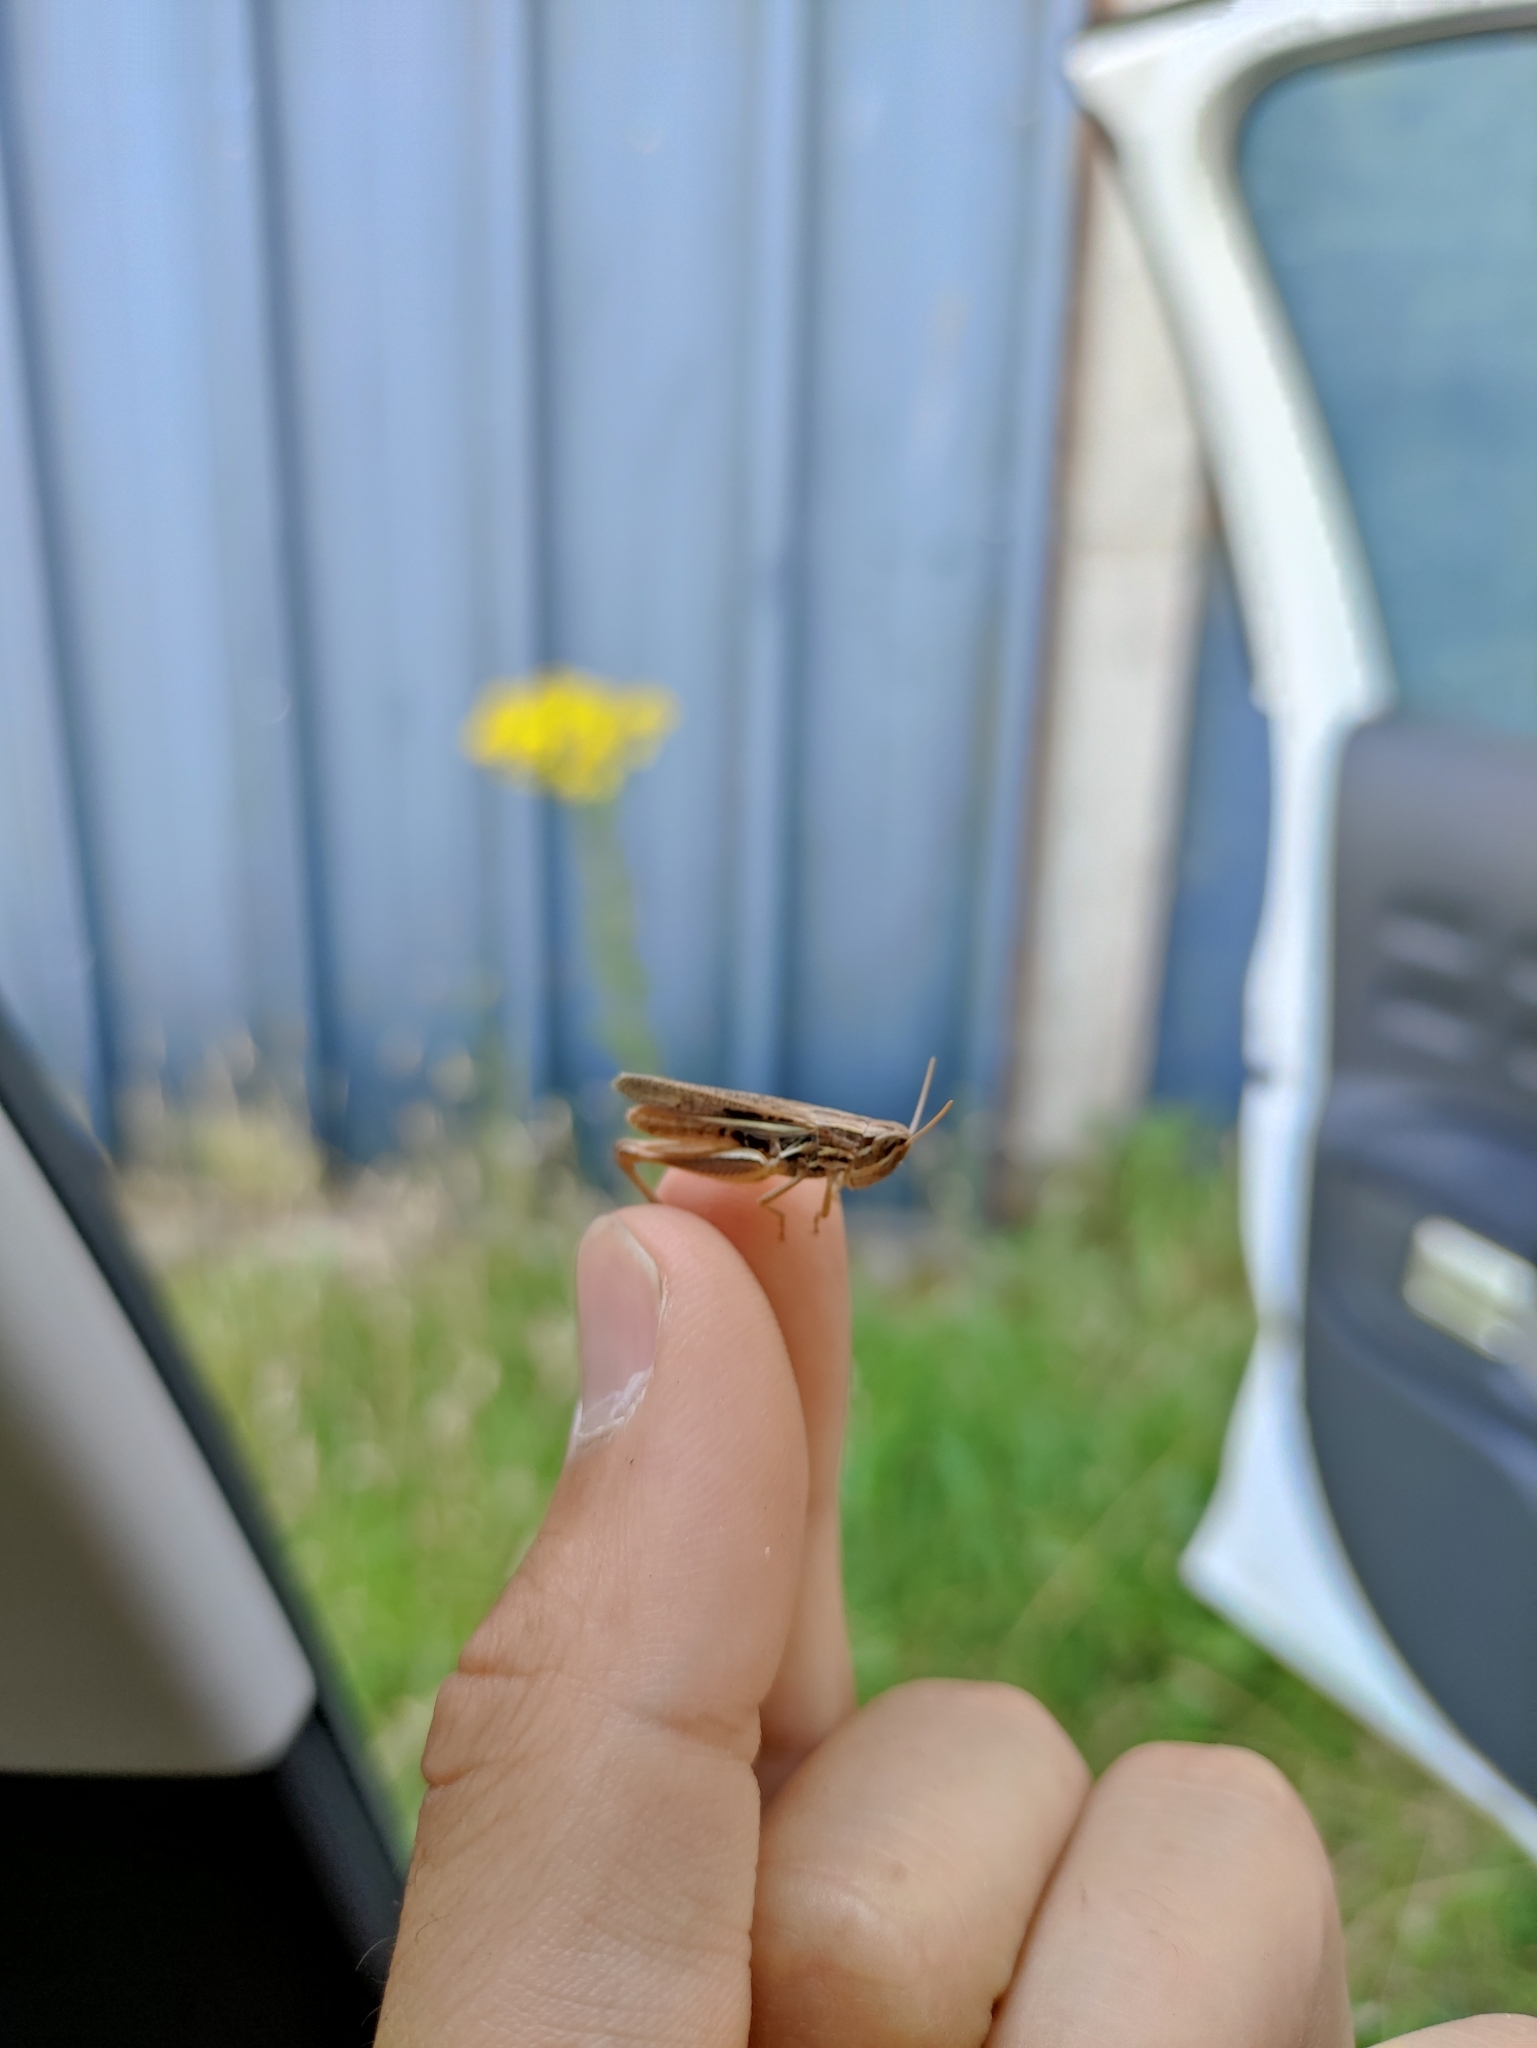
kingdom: Animalia
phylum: Arthropoda
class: Insecta
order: Orthoptera
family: Acrididae
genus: Chorthippus
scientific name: Chorthippus albomarginatus
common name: Lesser marsh grasshopper
